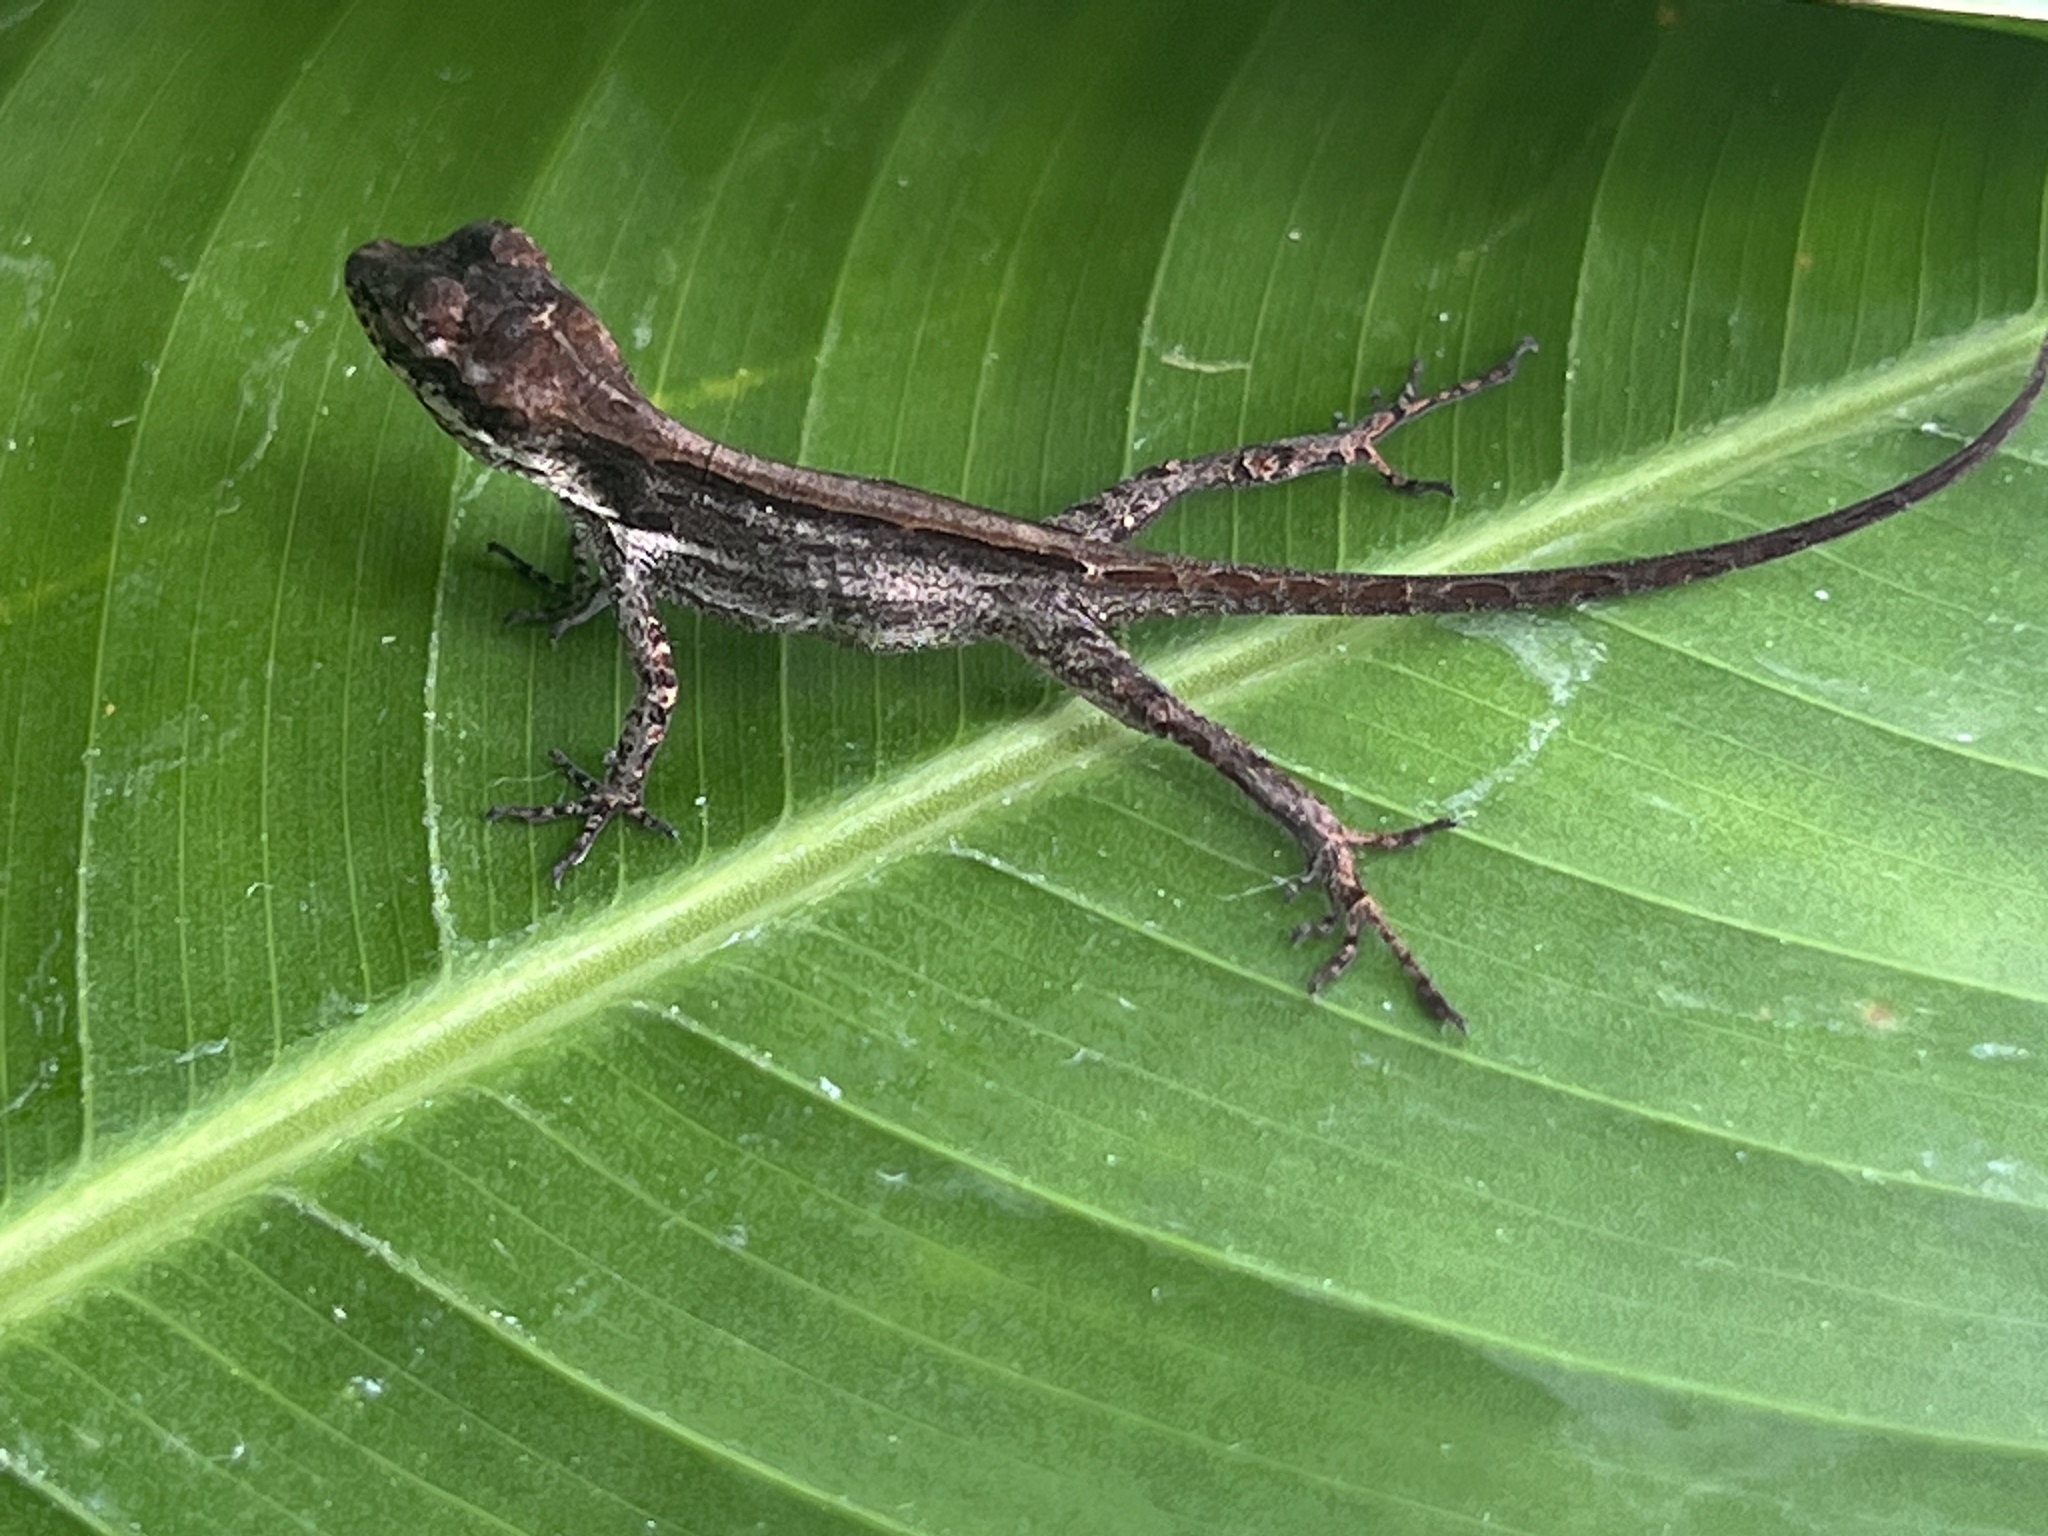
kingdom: Animalia
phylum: Chordata
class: Squamata
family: Dactyloidae
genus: Anolis
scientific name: Anolis lemurinus
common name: Ghost anole
